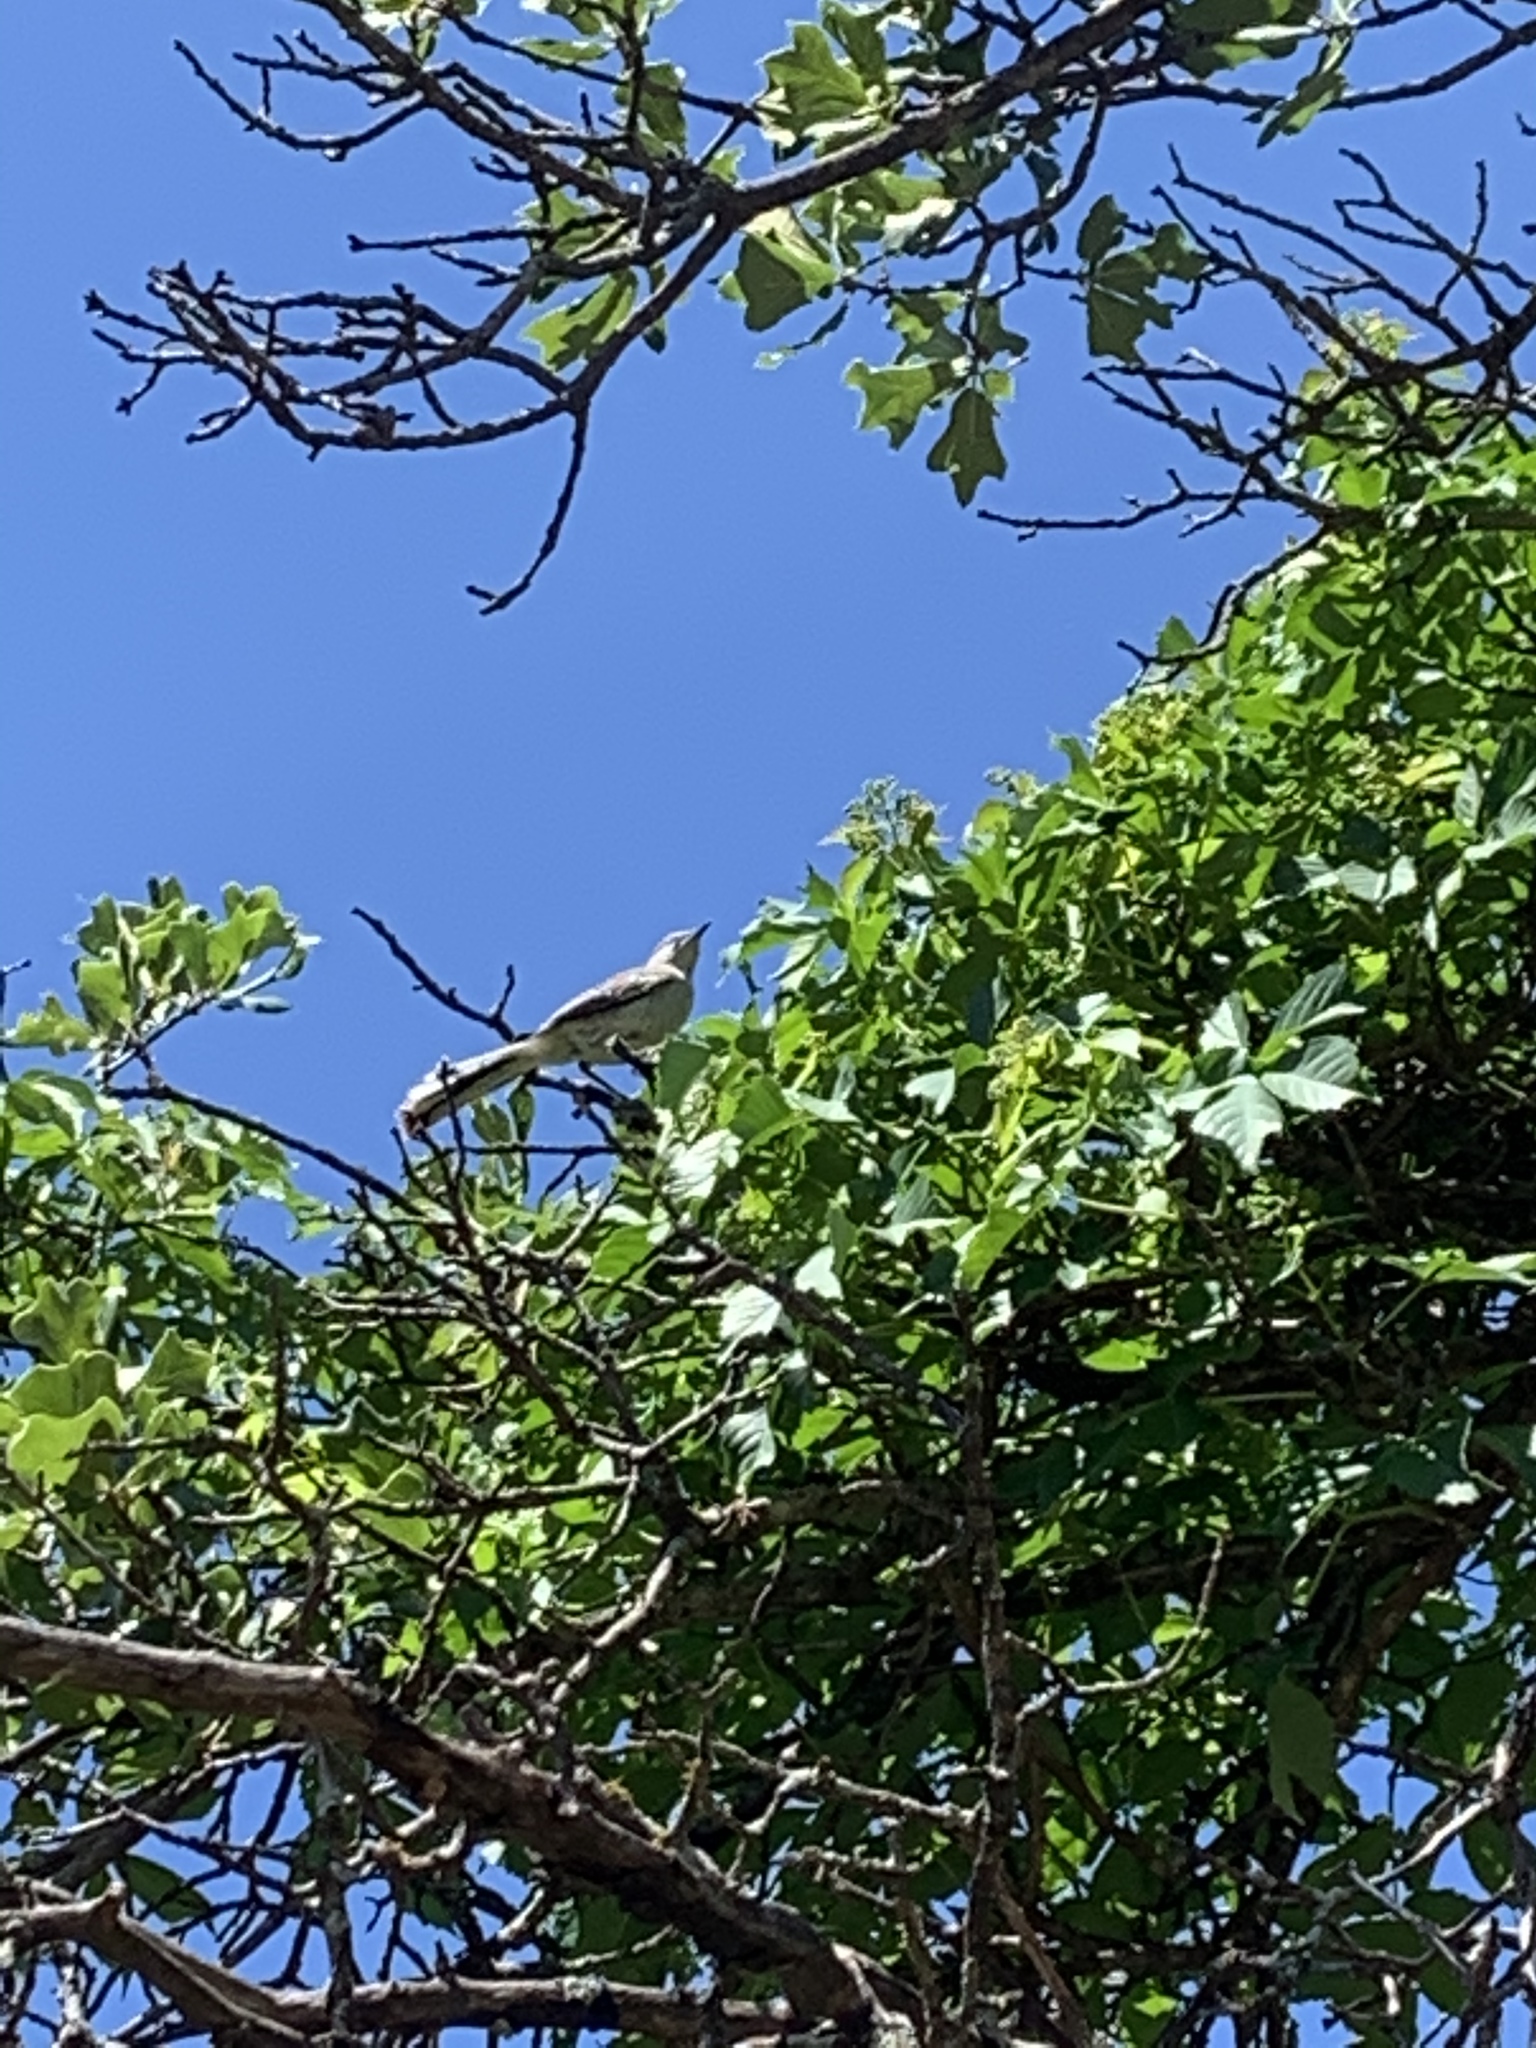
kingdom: Animalia
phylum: Chordata
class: Aves
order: Passeriformes
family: Mimidae
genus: Mimus
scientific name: Mimus polyglottos
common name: Northern mockingbird
